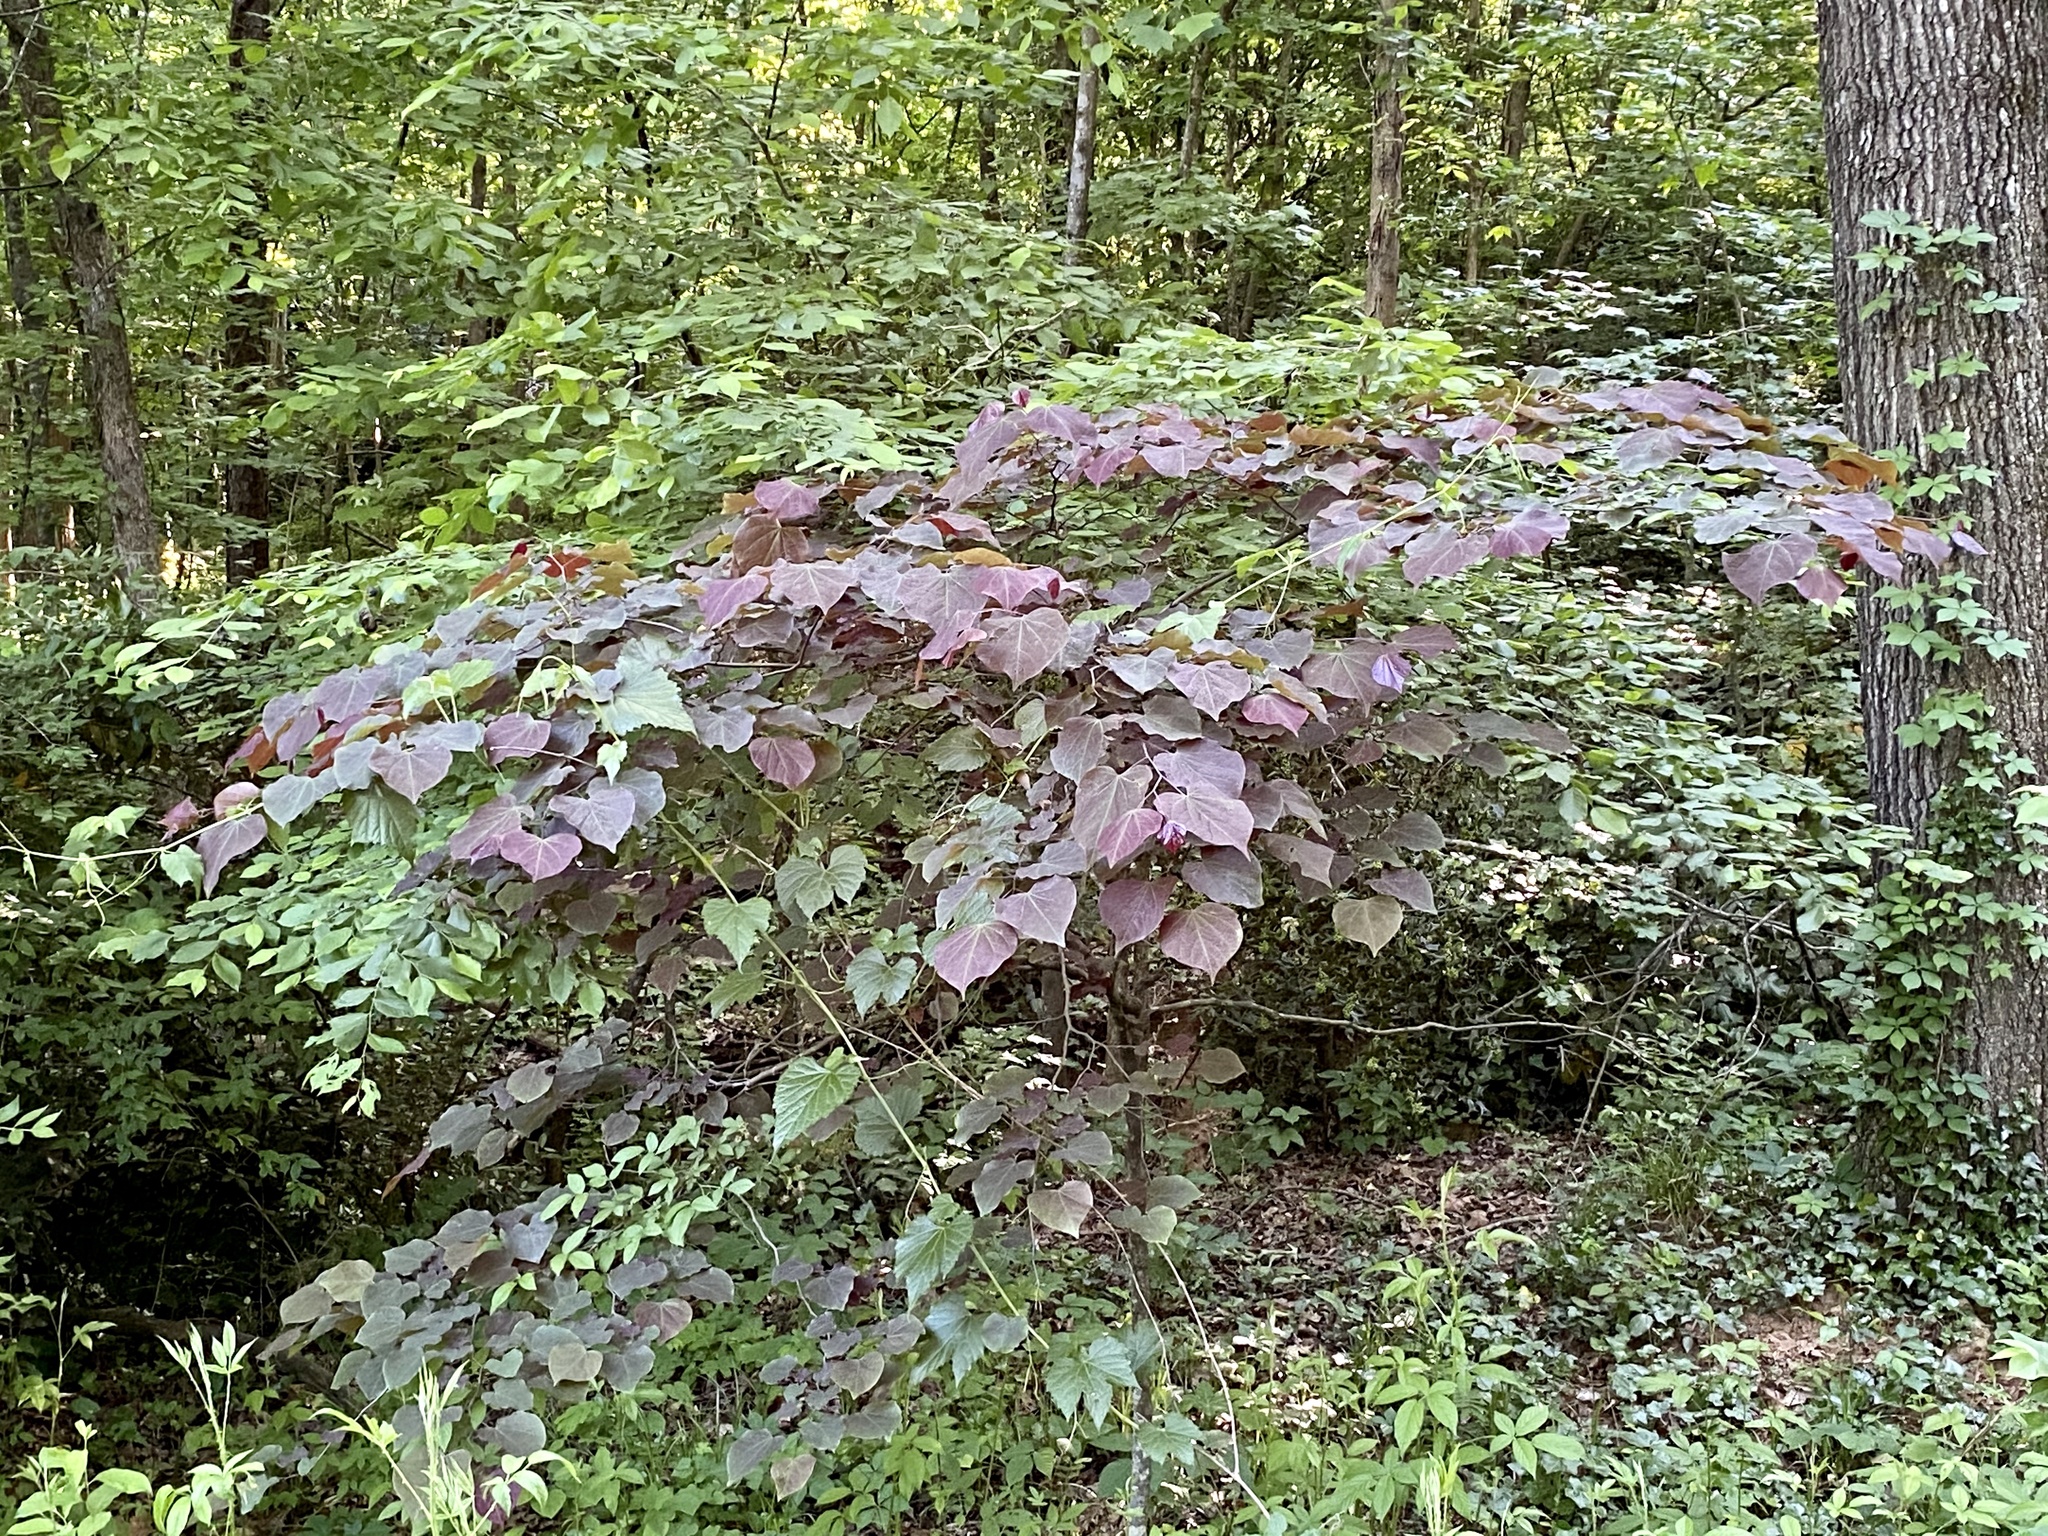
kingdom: Plantae
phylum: Tracheophyta
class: Magnoliopsida
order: Fabales
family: Fabaceae
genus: Cercis
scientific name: Cercis canadensis
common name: Eastern redbud
